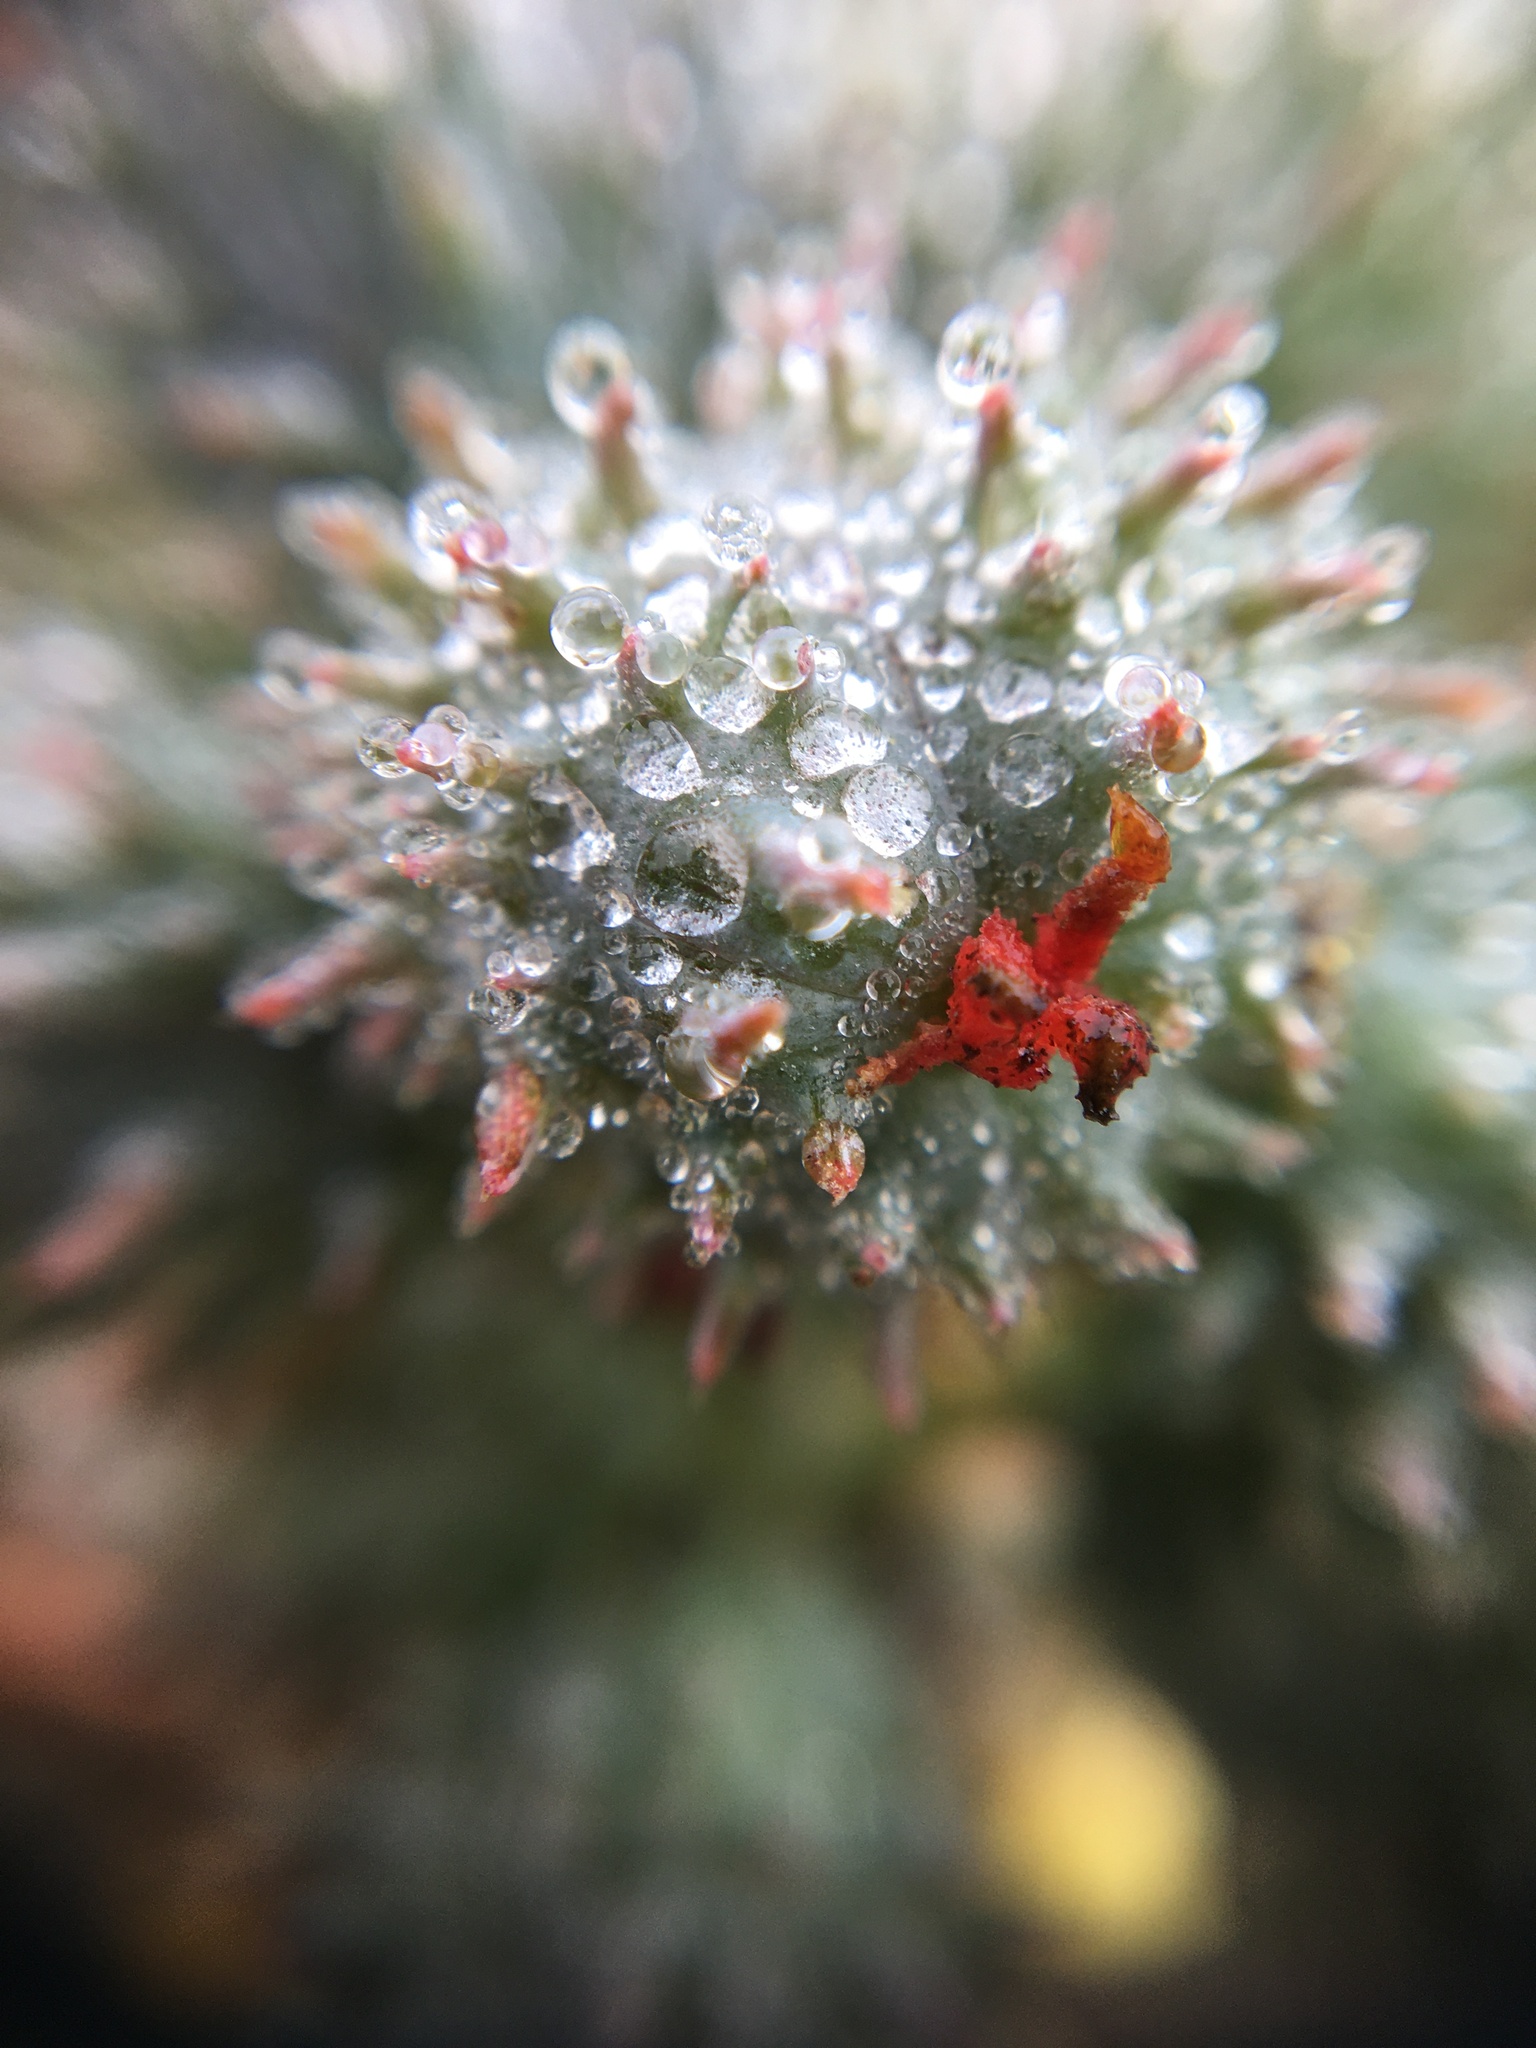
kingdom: Plantae
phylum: Tracheophyta
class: Magnoliopsida
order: Malpighiales
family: Euphorbiaceae
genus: Ricinus
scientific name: Ricinus communis
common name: Castor-oil-plant
